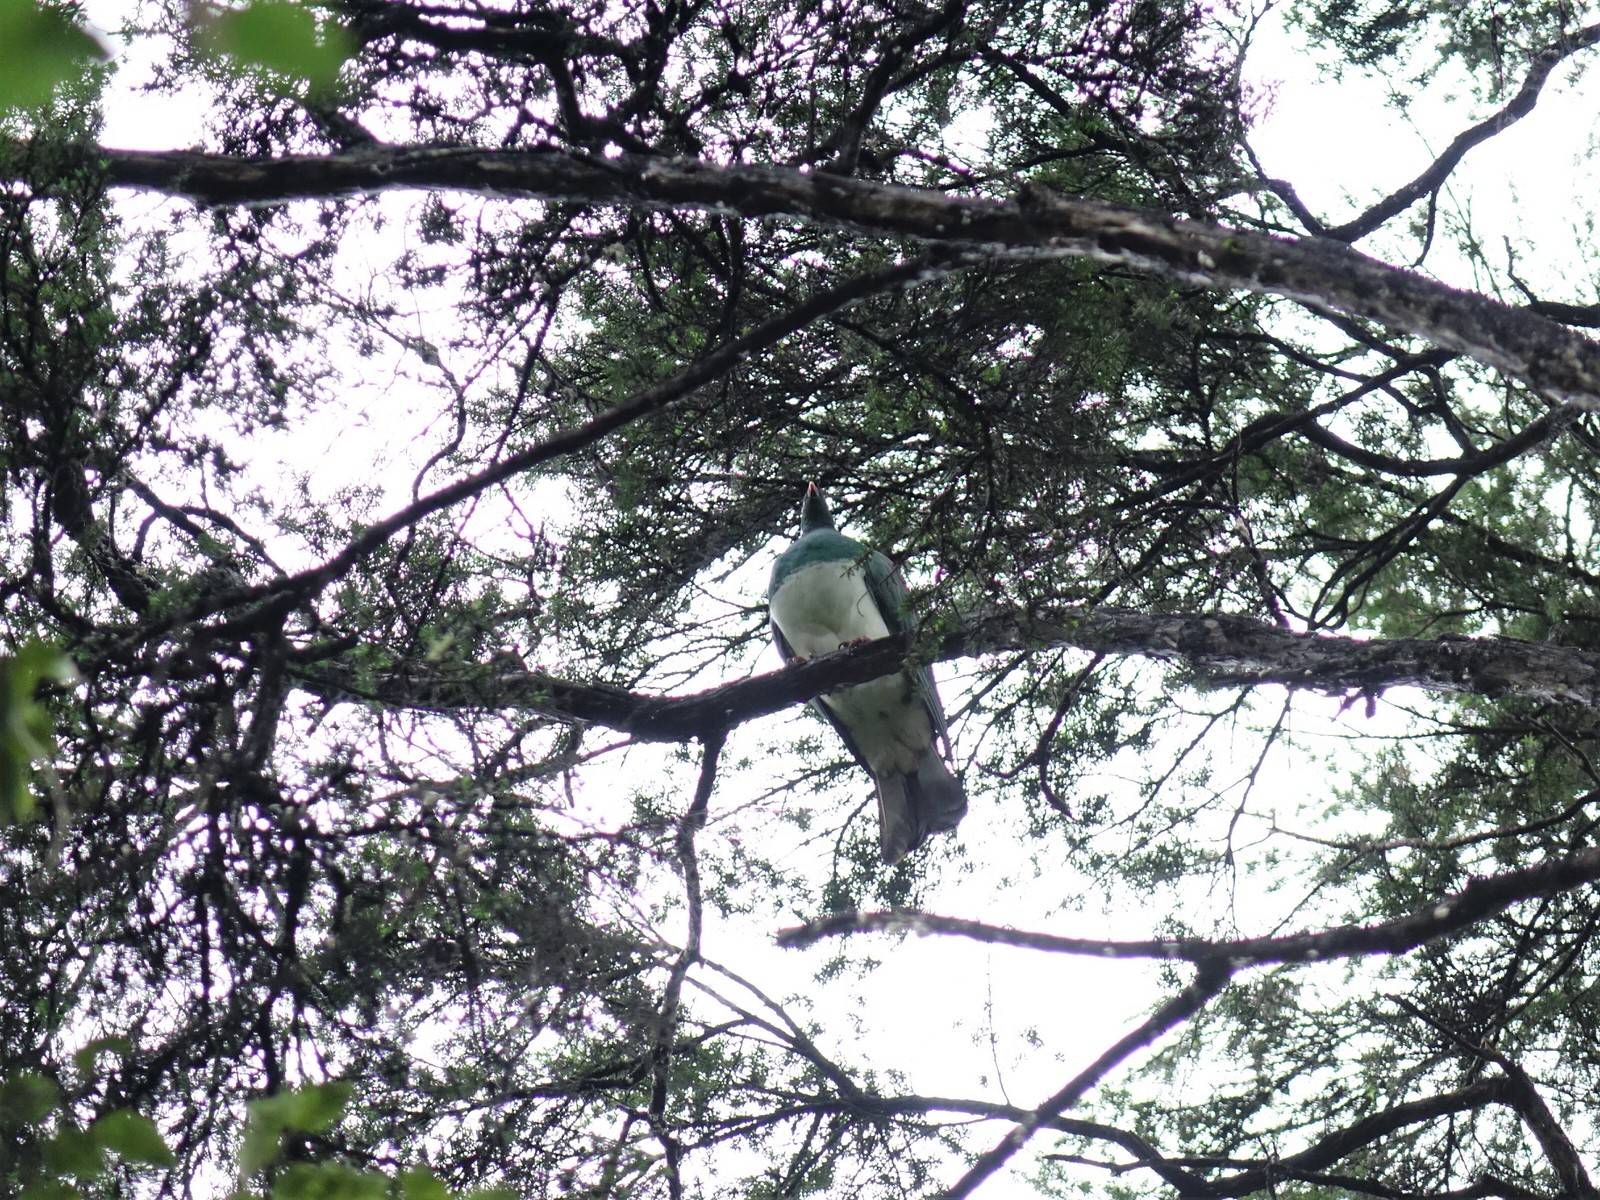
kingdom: Animalia
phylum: Chordata
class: Aves
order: Columbiformes
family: Columbidae
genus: Hemiphaga
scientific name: Hemiphaga novaeseelandiae
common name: New zealand pigeon
